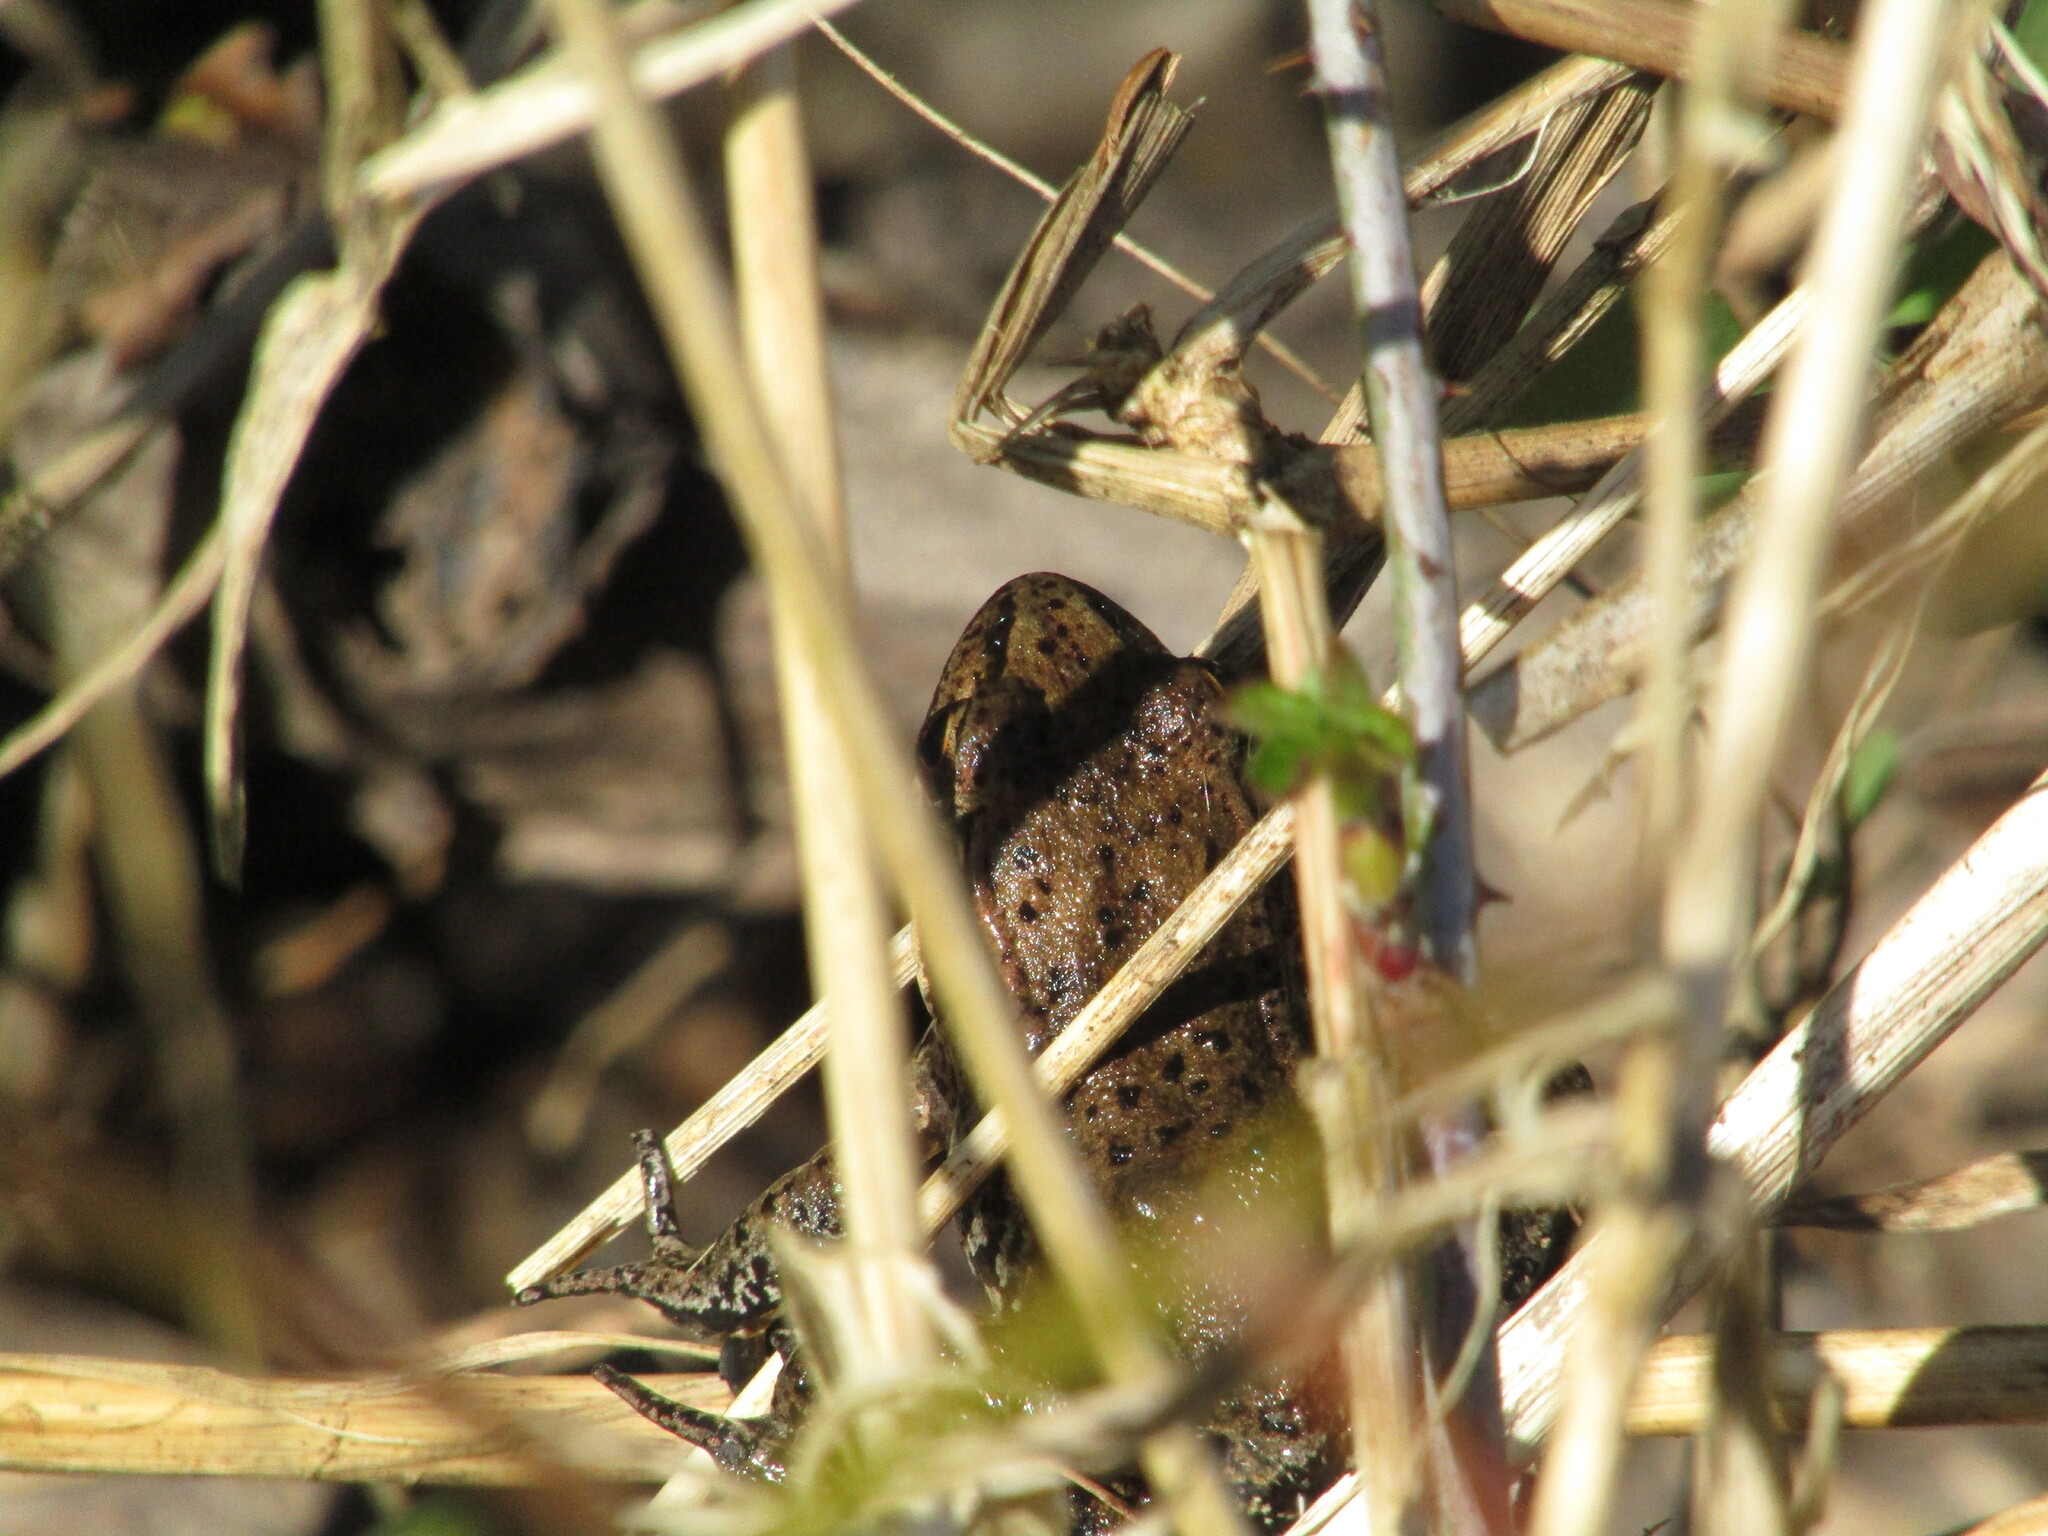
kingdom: Animalia
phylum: Chordata
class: Amphibia
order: Anura
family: Ranidae
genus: Rana
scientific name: Rana aurora
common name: Red-legged frog
